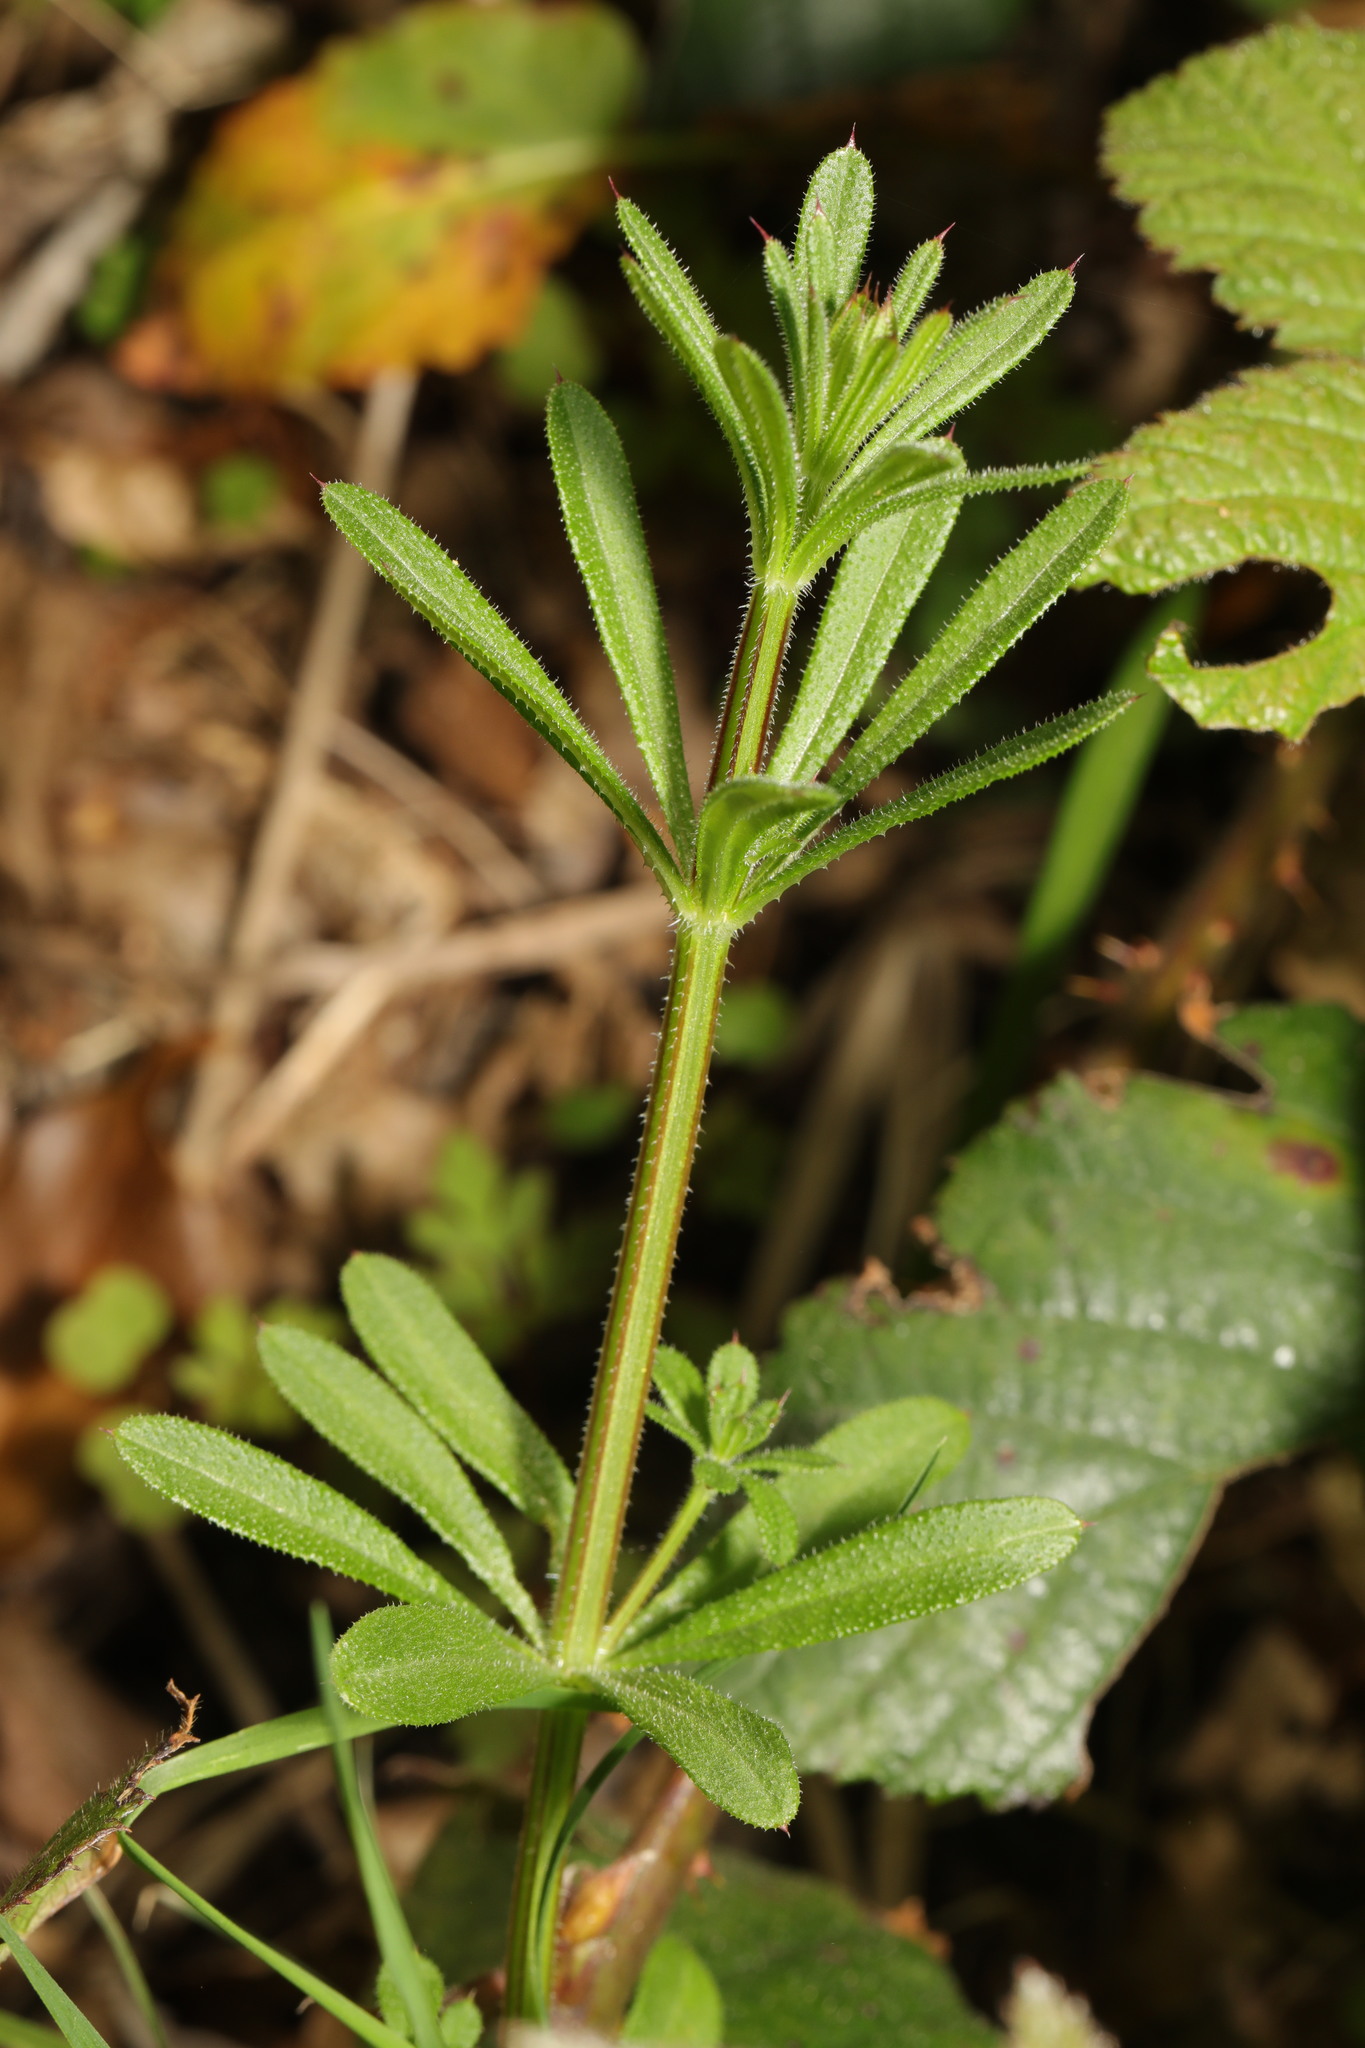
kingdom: Plantae
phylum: Tracheophyta
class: Magnoliopsida
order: Gentianales
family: Rubiaceae
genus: Galium
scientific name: Galium aparine
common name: Cleavers
